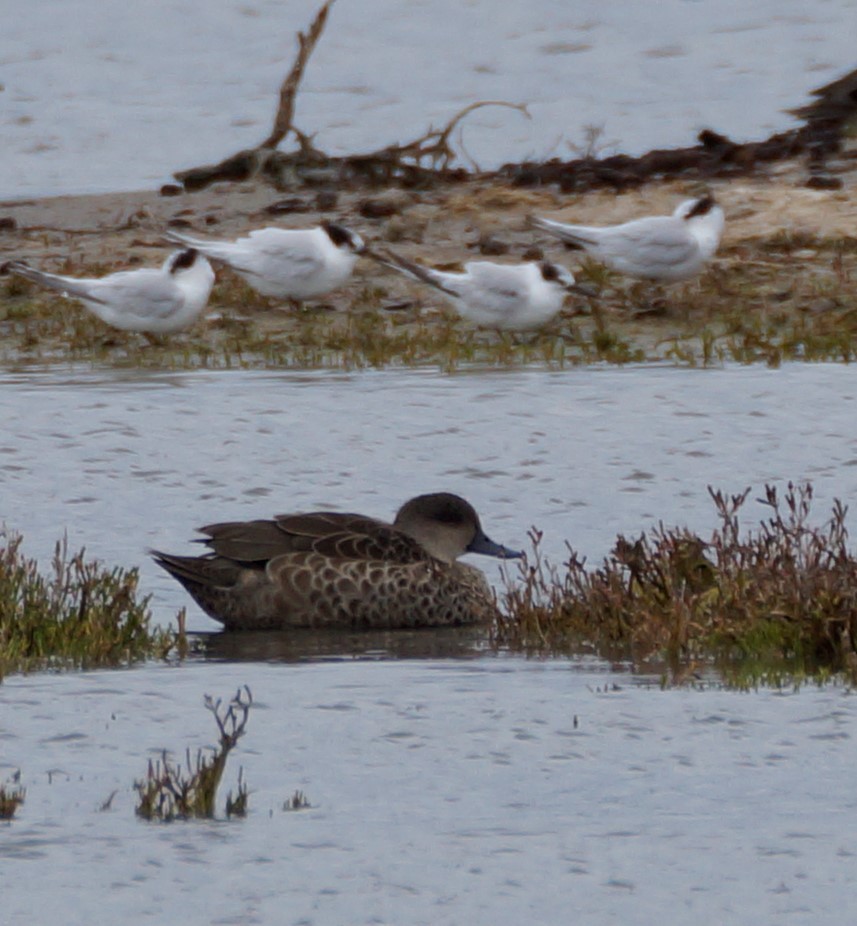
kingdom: Animalia
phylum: Chordata
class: Aves
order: Anseriformes
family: Anatidae
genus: Anas
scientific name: Anas gracilis
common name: Grey teal
